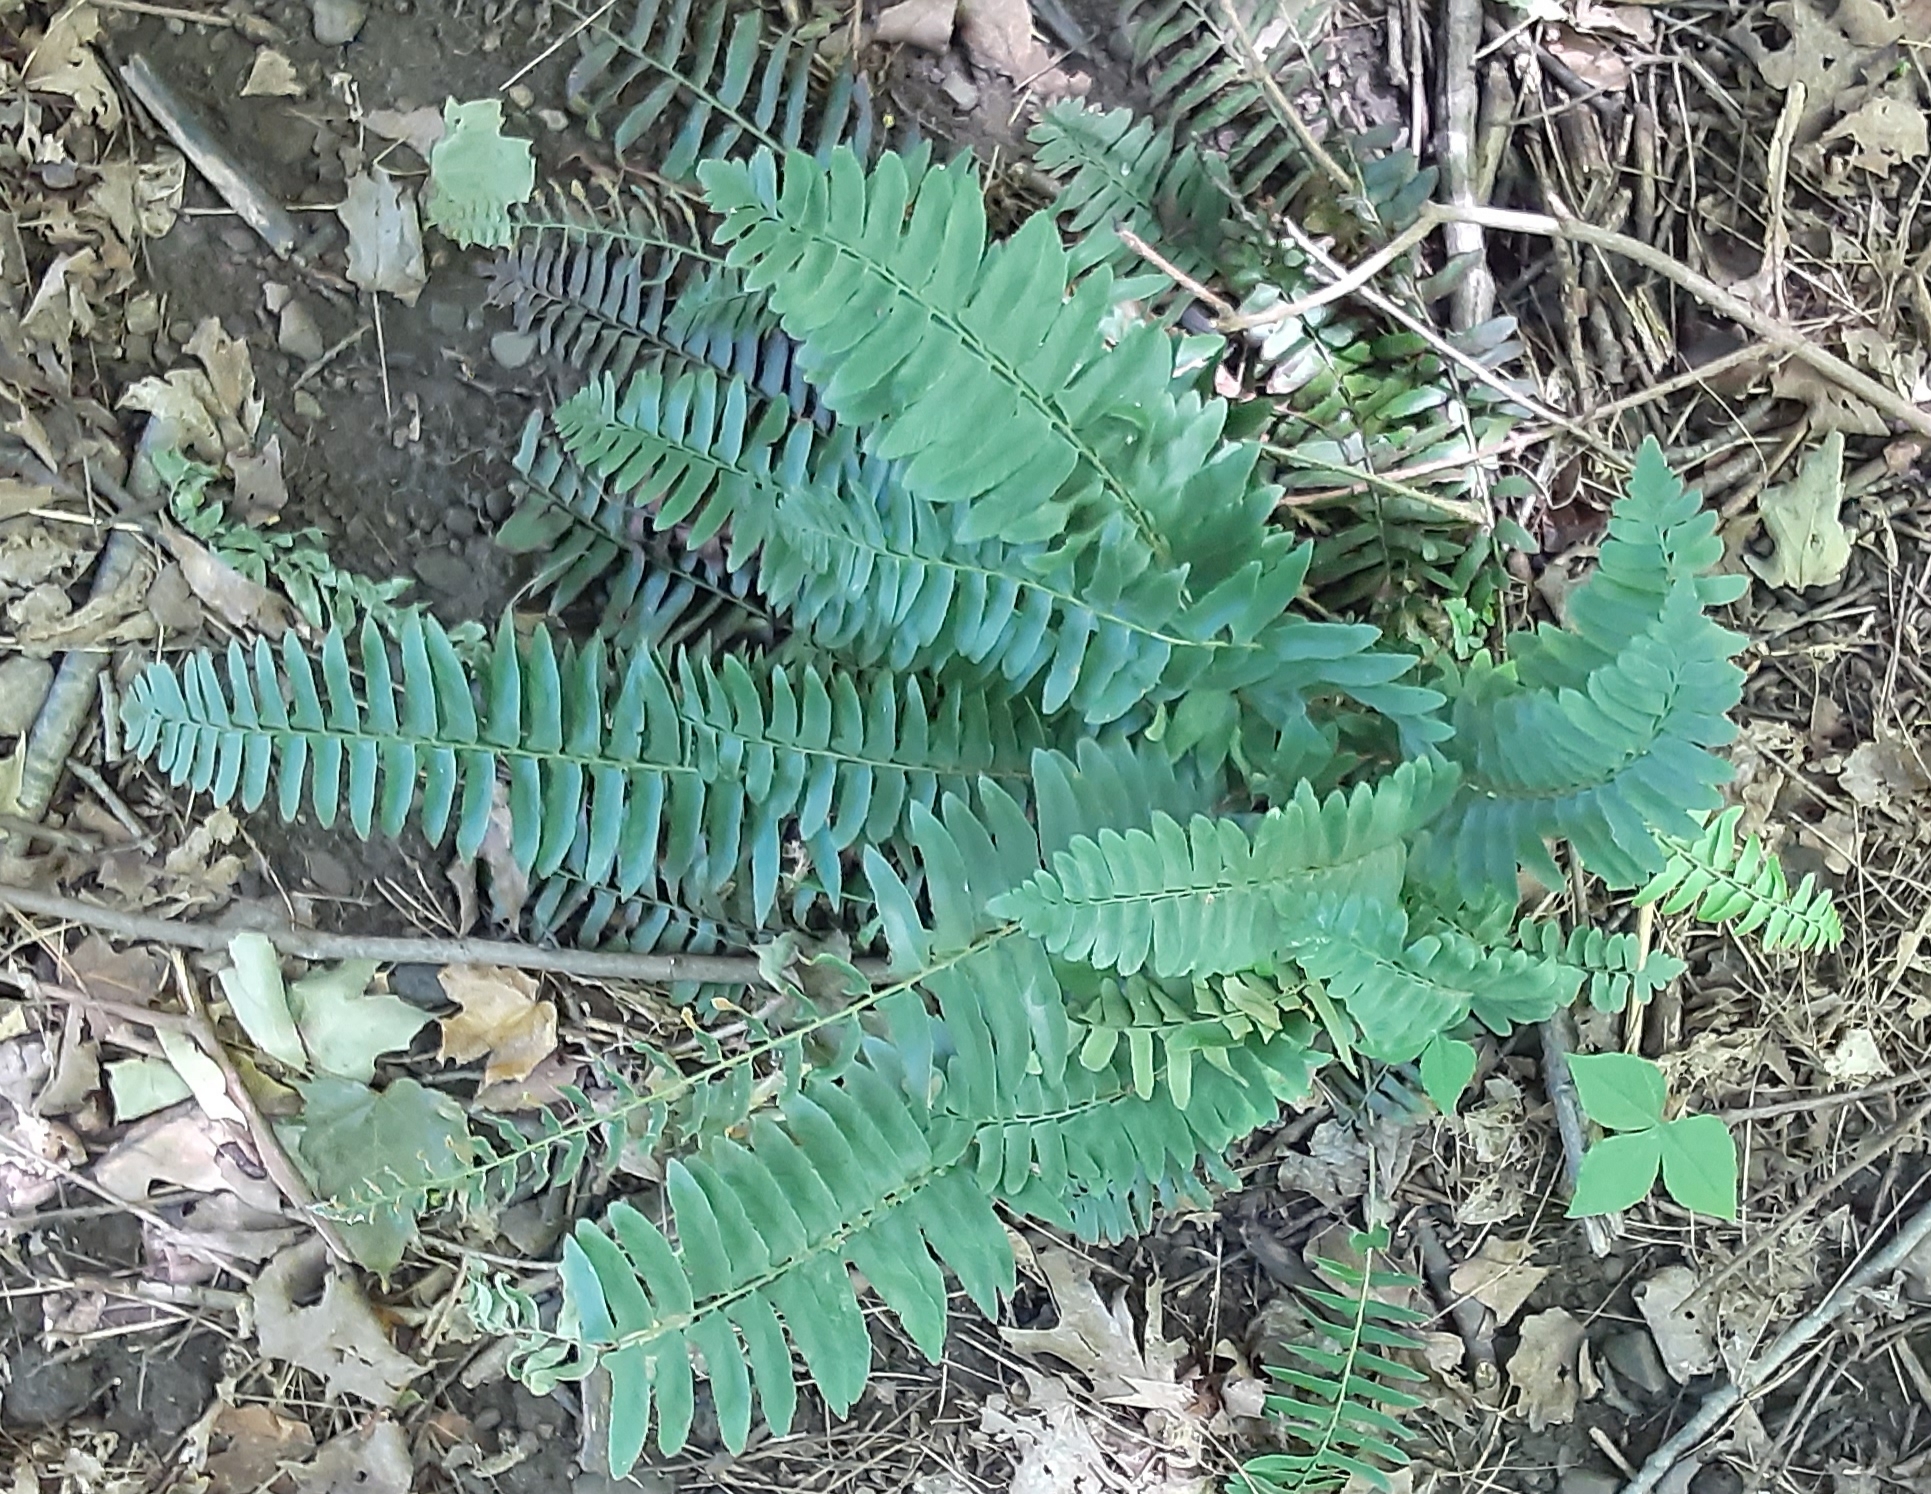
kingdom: Plantae
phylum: Tracheophyta
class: Polypodiopsida
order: Polypodiales
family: Dryopteridaceae
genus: Polystichum
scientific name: Polystichum acrostichoides
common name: Christmas fern
